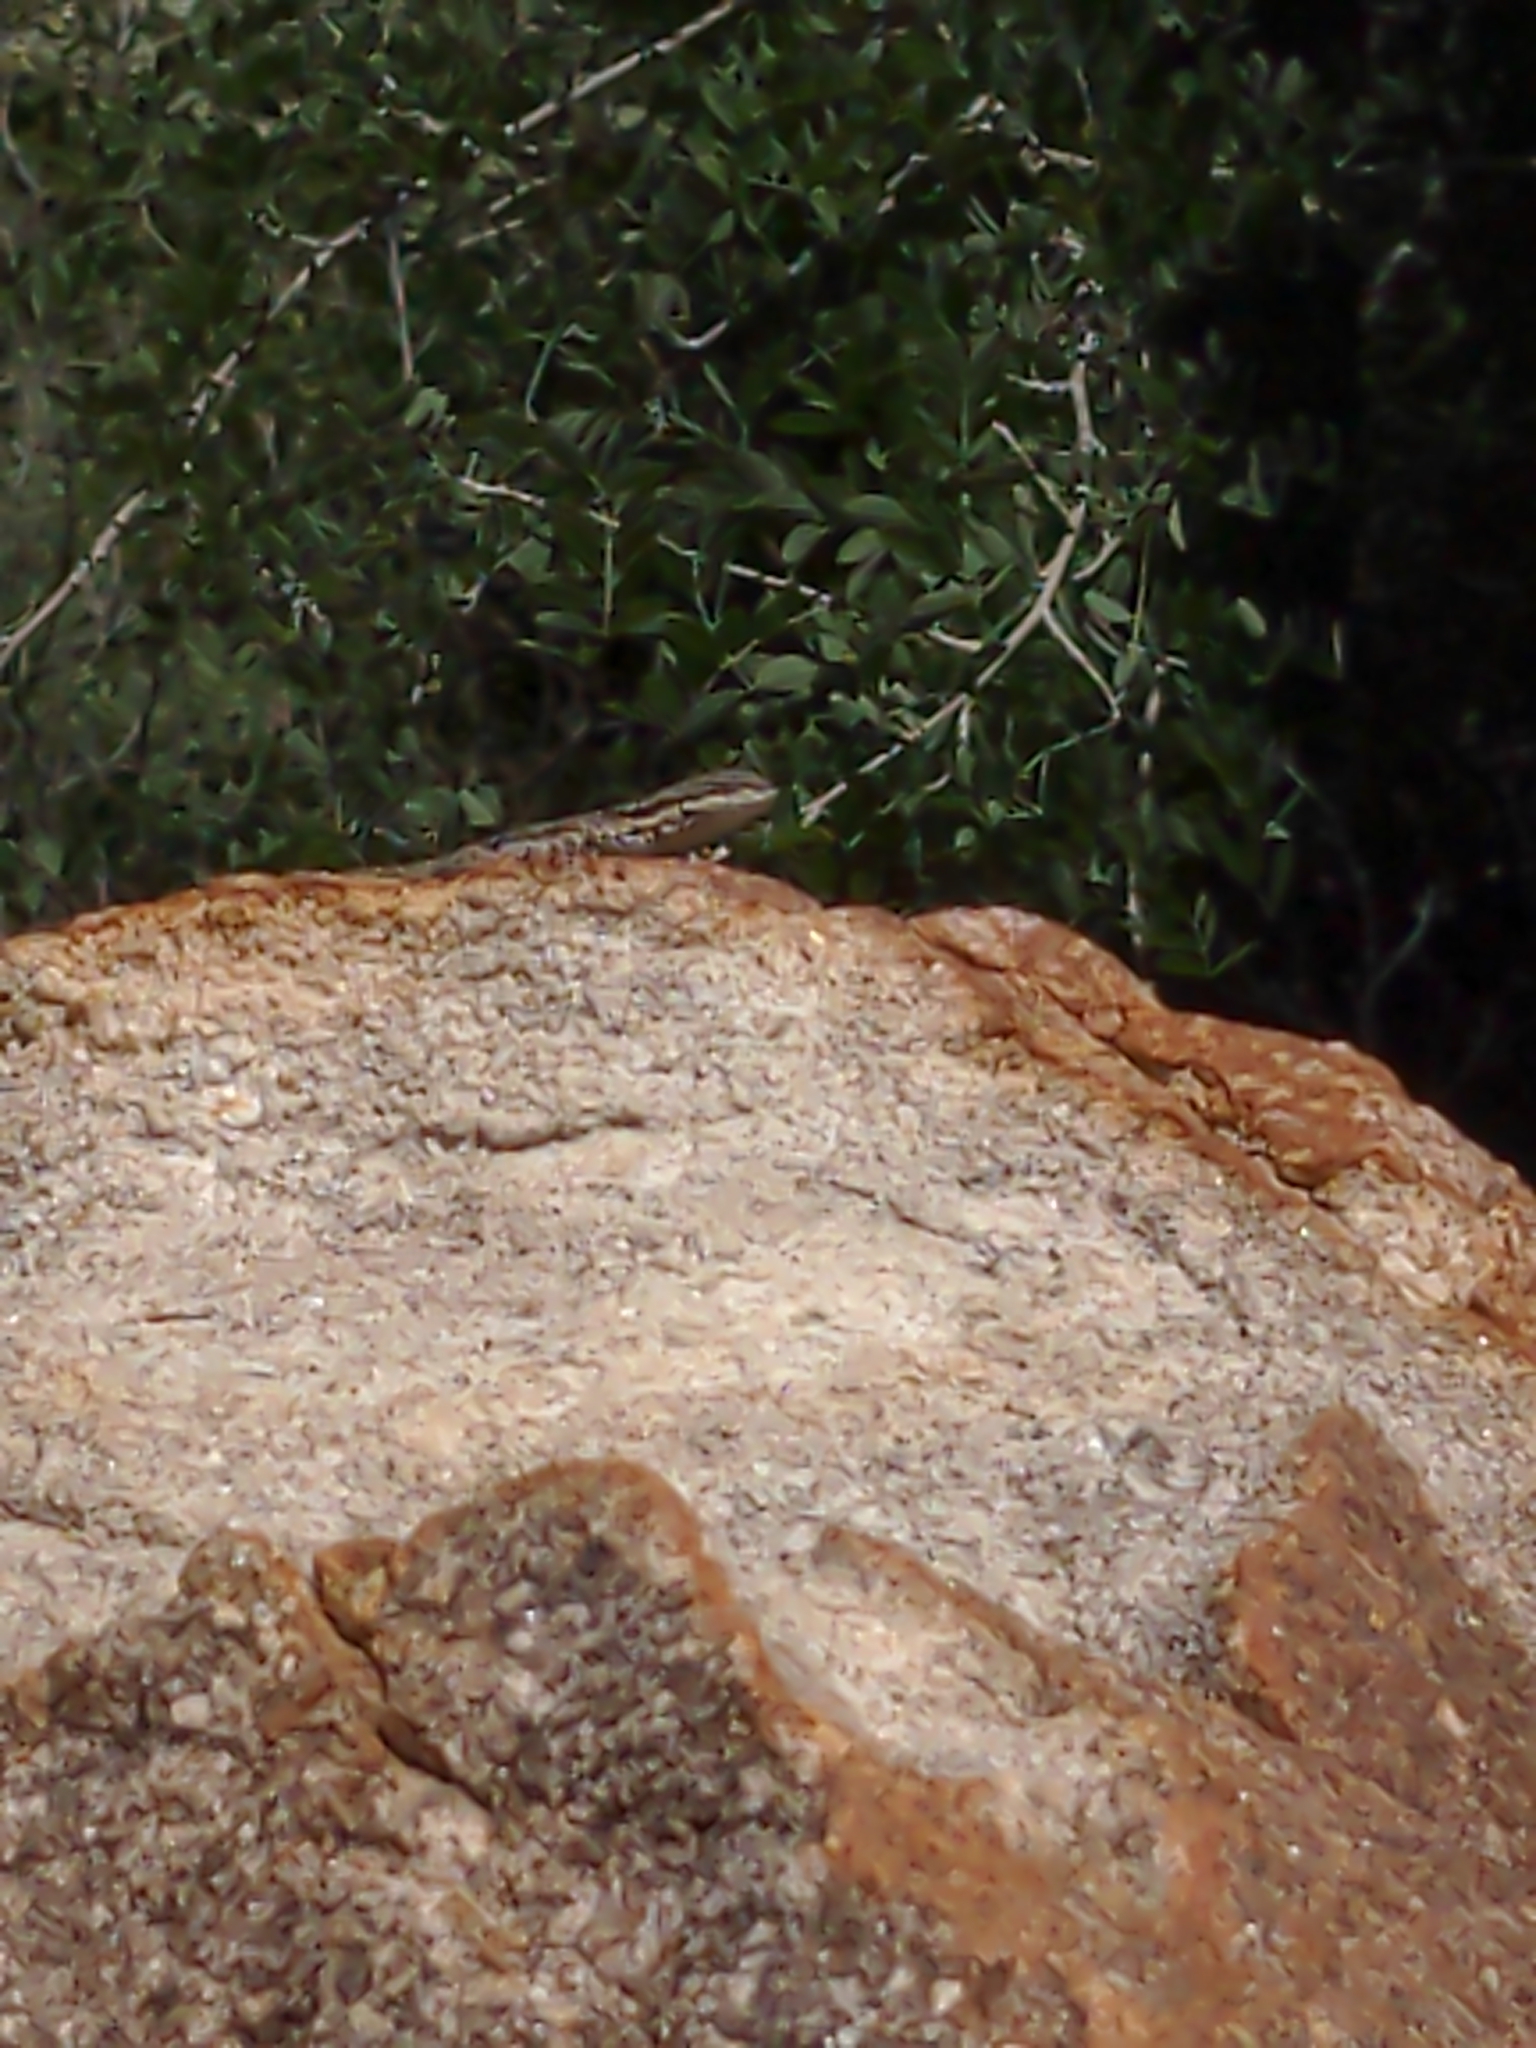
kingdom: Animalia
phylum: Chordata
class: Squamata
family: Phrynosomatidae
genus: Urosaurus
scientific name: Urosaurus ornatus
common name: Ornate tree lizard
